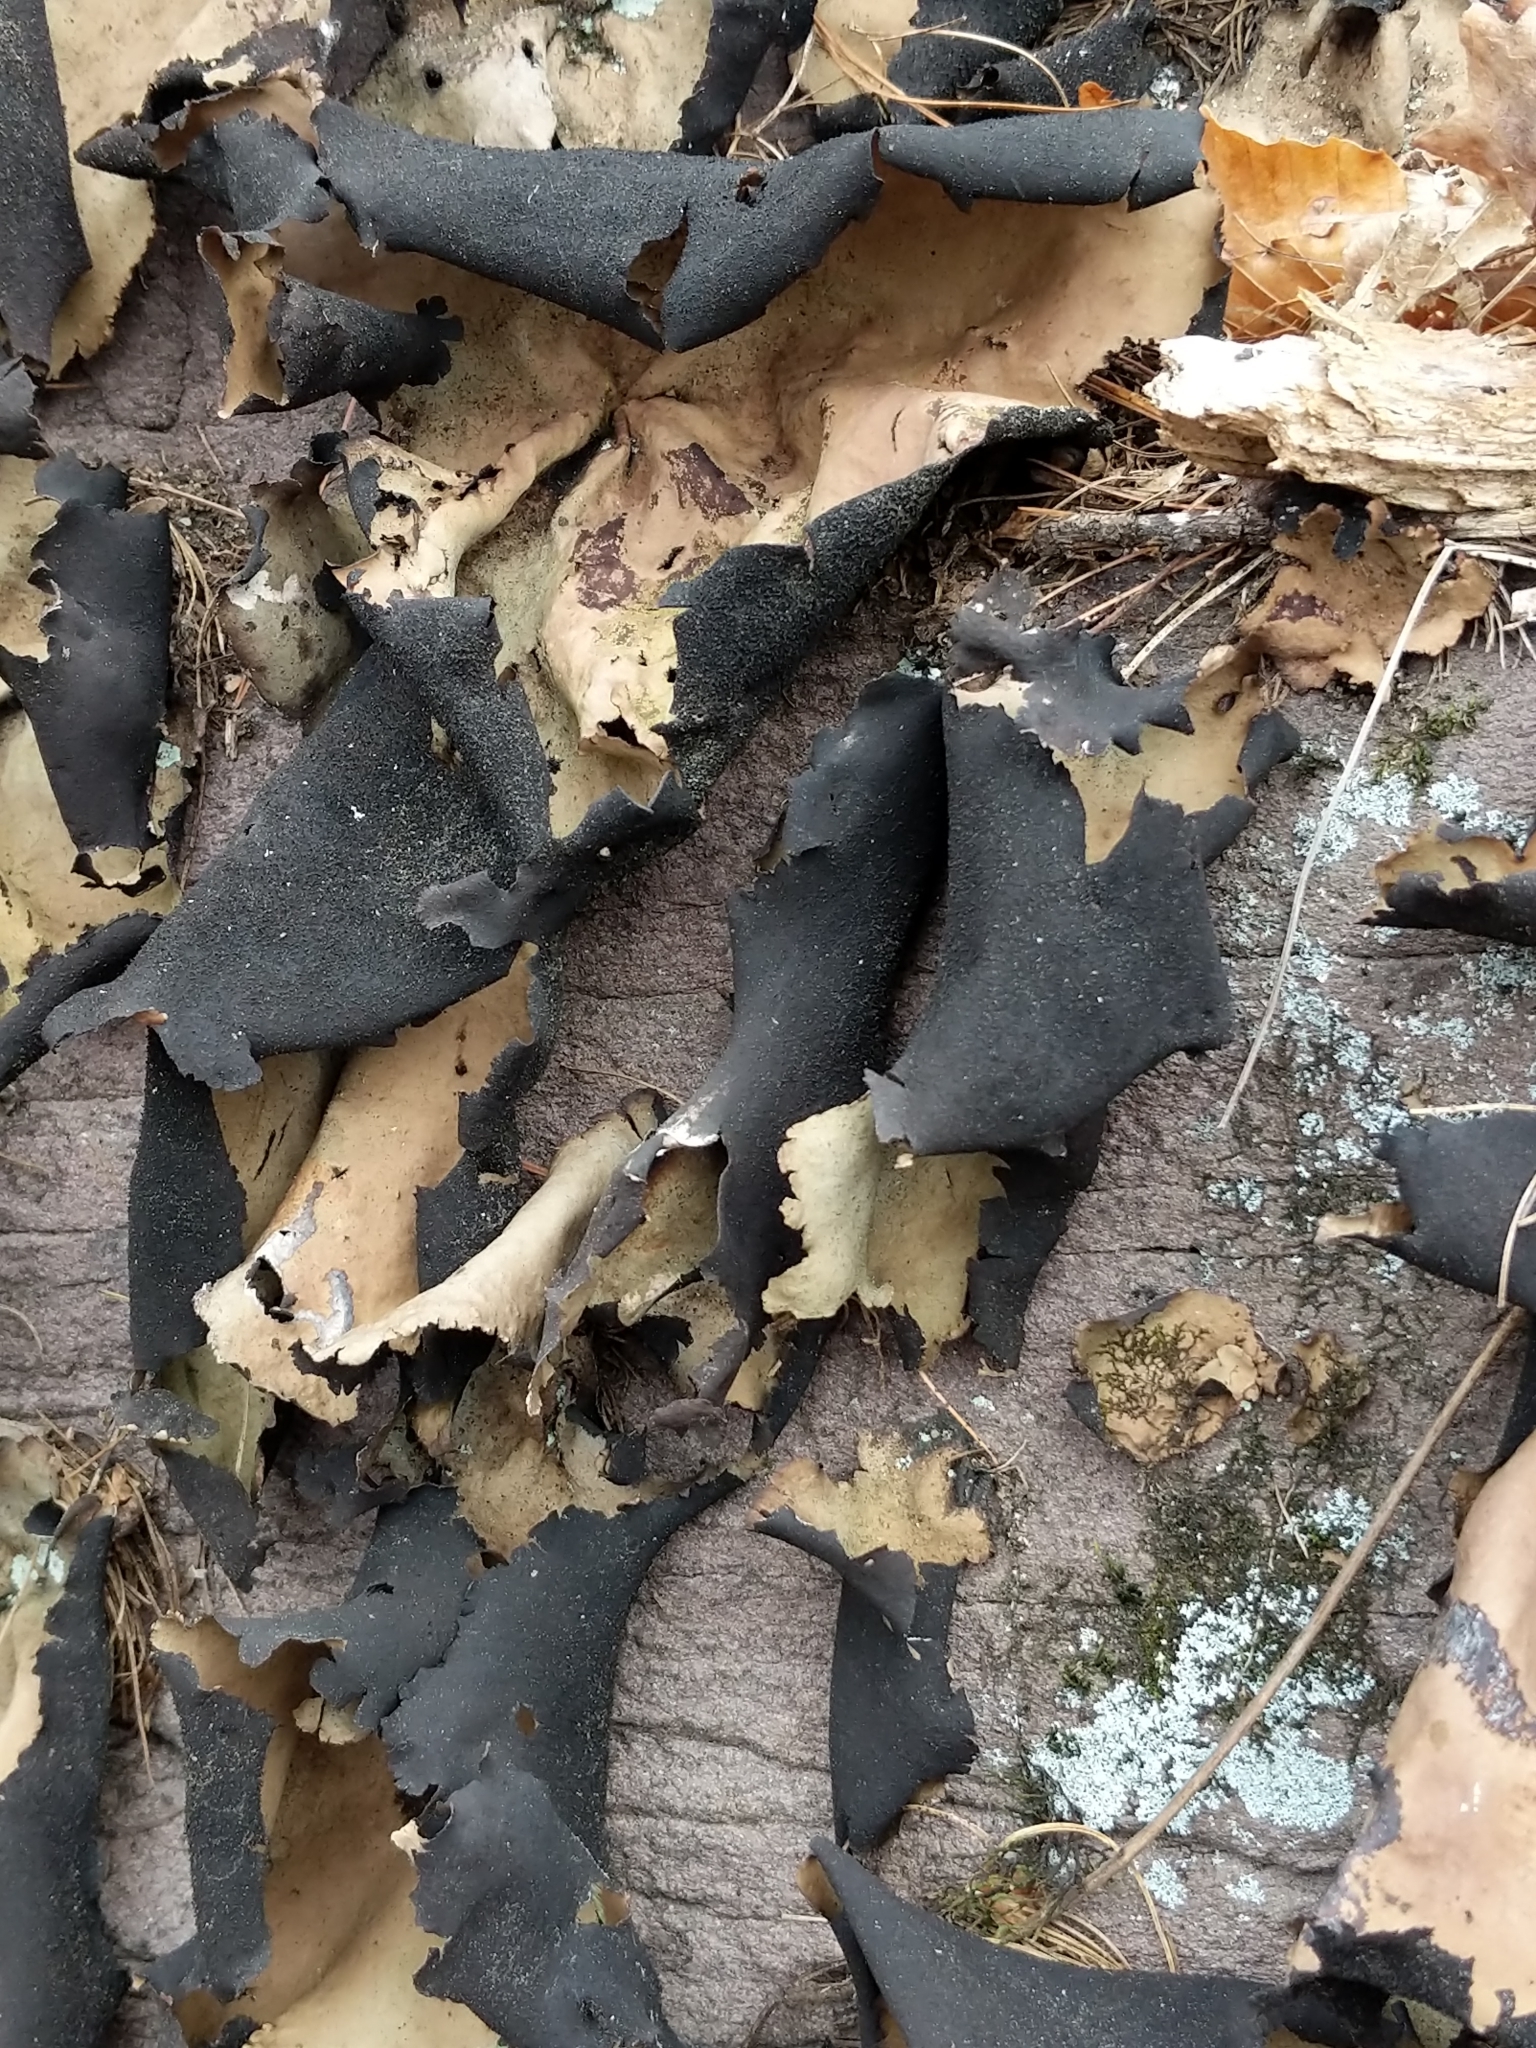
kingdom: Fungi
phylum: Ascomycota
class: Lecanoromycetes
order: Umbilicariales
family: Umbilicariaceae
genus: Umbilicaria
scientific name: Umbilicaria mammulata
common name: Smooth rock tripe
